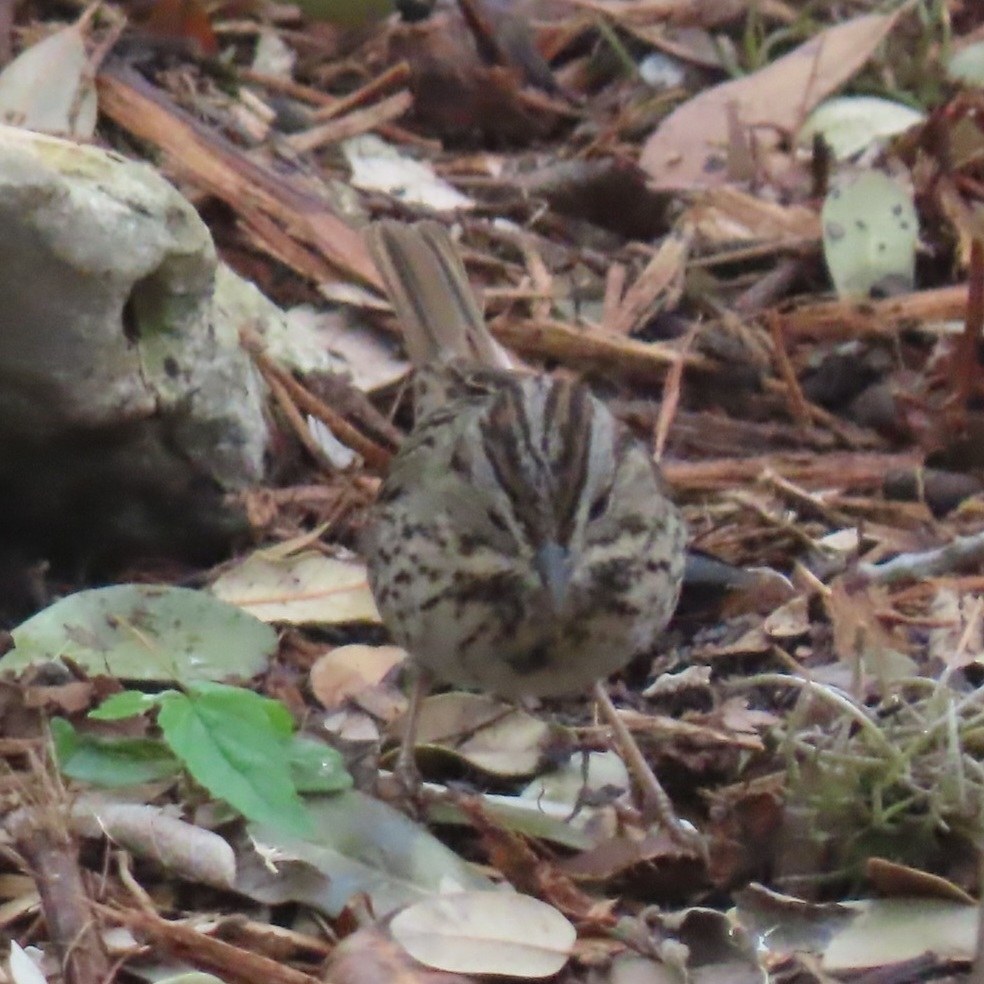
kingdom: Animalia
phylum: Chordata
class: Aves
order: Passeriformes
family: Passerellidae
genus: Melospiza
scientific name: Melospiza lincolnii
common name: Lincoln's sparrow
